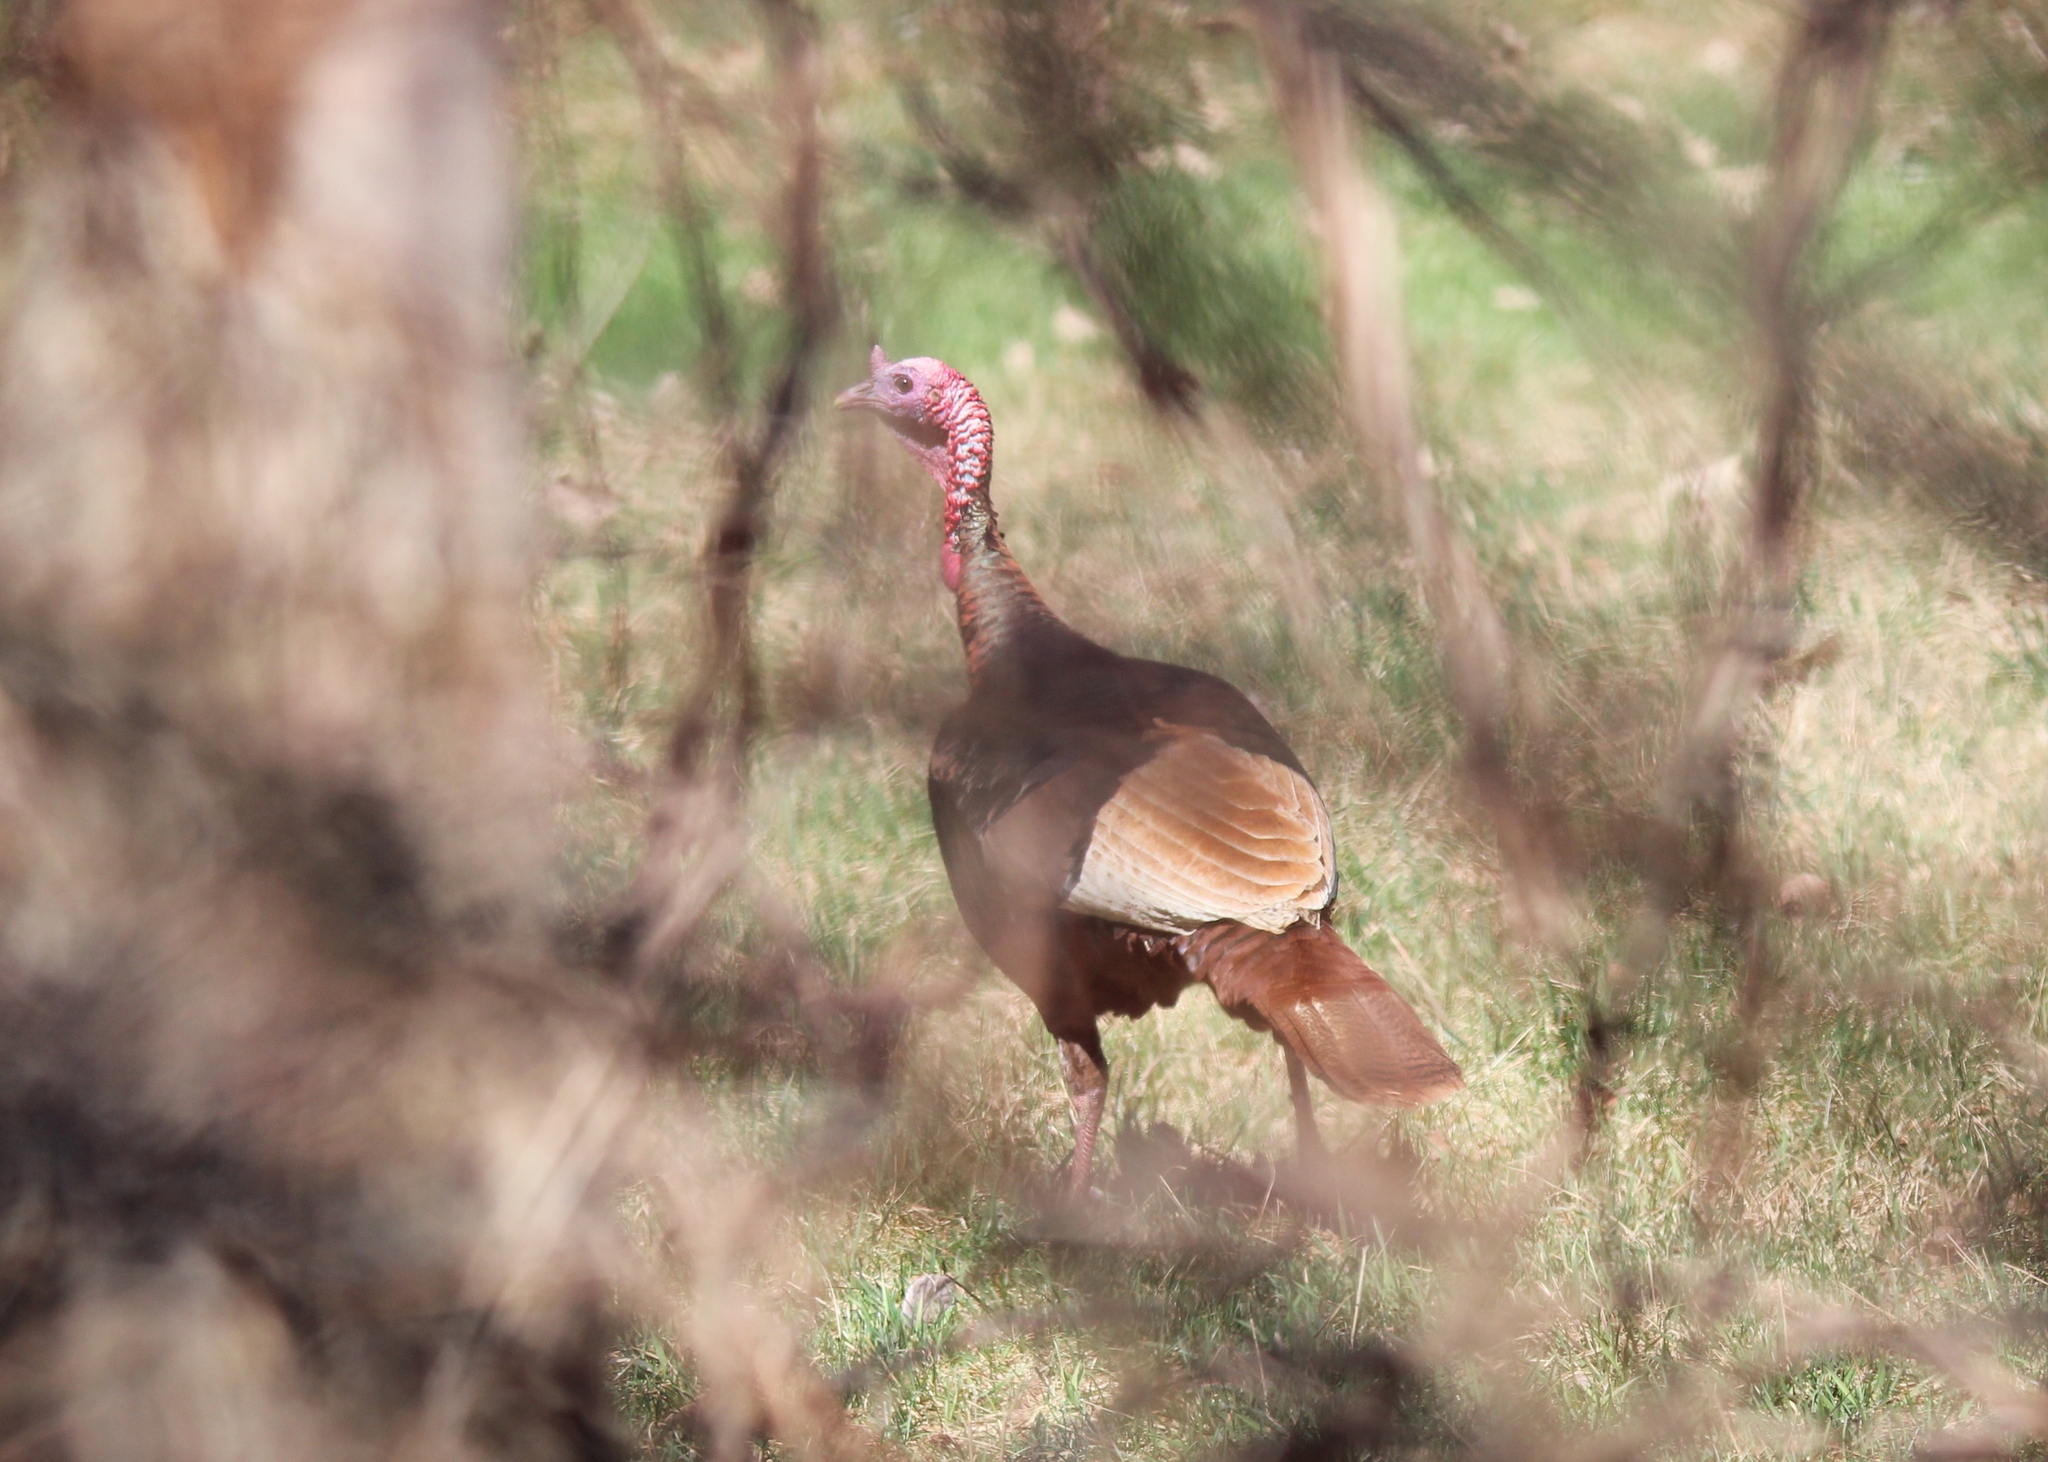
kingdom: Animalia
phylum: Chordata
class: Aves
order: Galliformes
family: Phasianidae
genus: Meleagris
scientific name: Meleagris gallopavo
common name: Wild turkey
